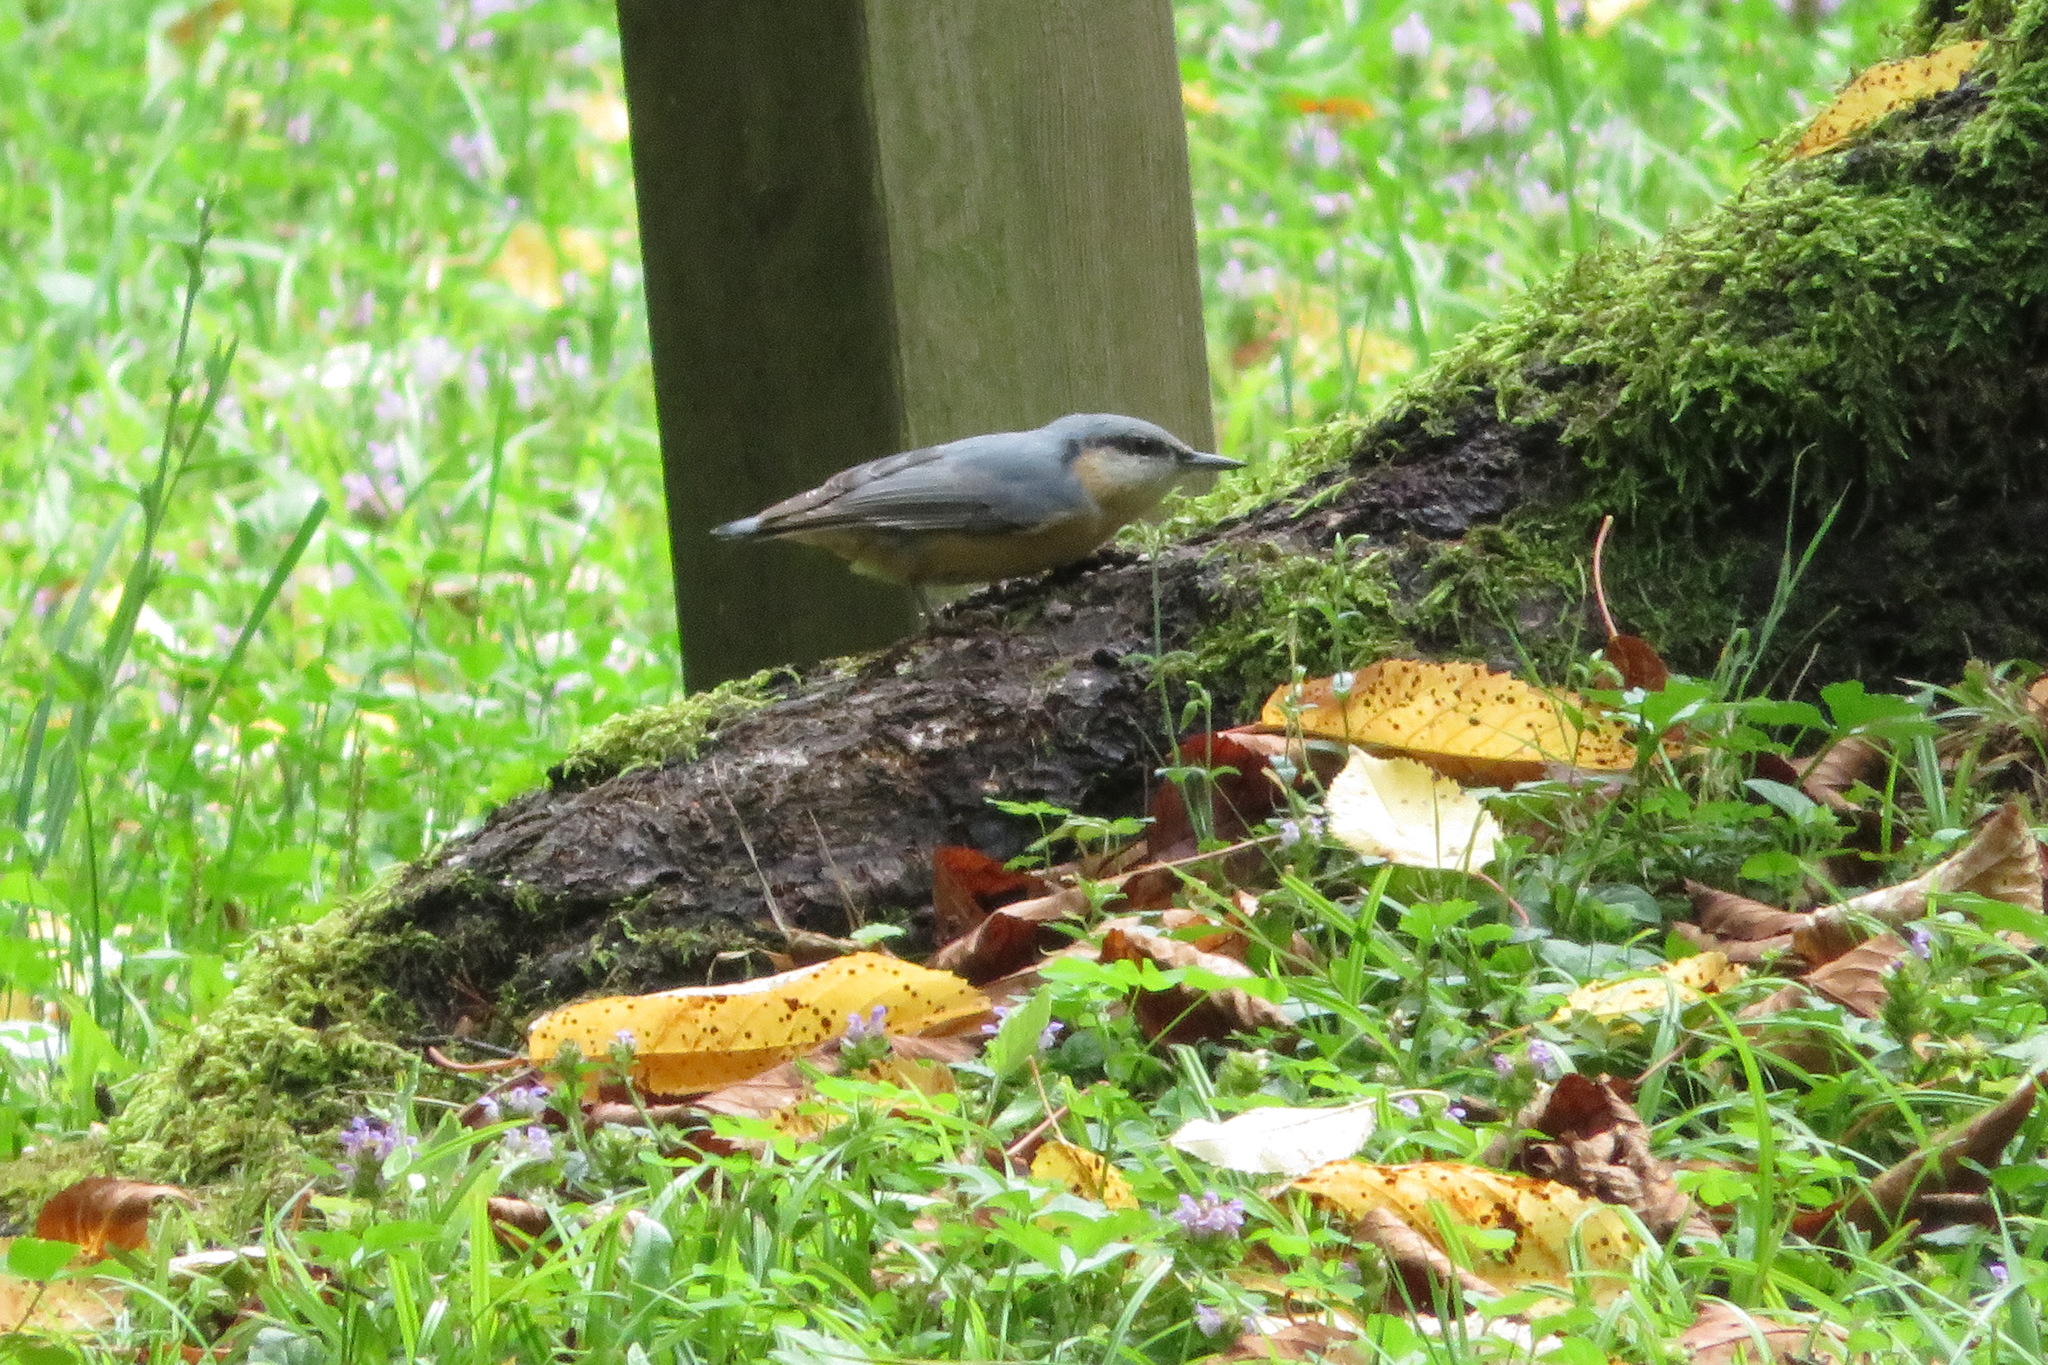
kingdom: Animalia
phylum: Chordata
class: Aves
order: Passeriformes
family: Sittidae
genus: Sitta
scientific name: Sitta europaea
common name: Eurasian nuthatch
